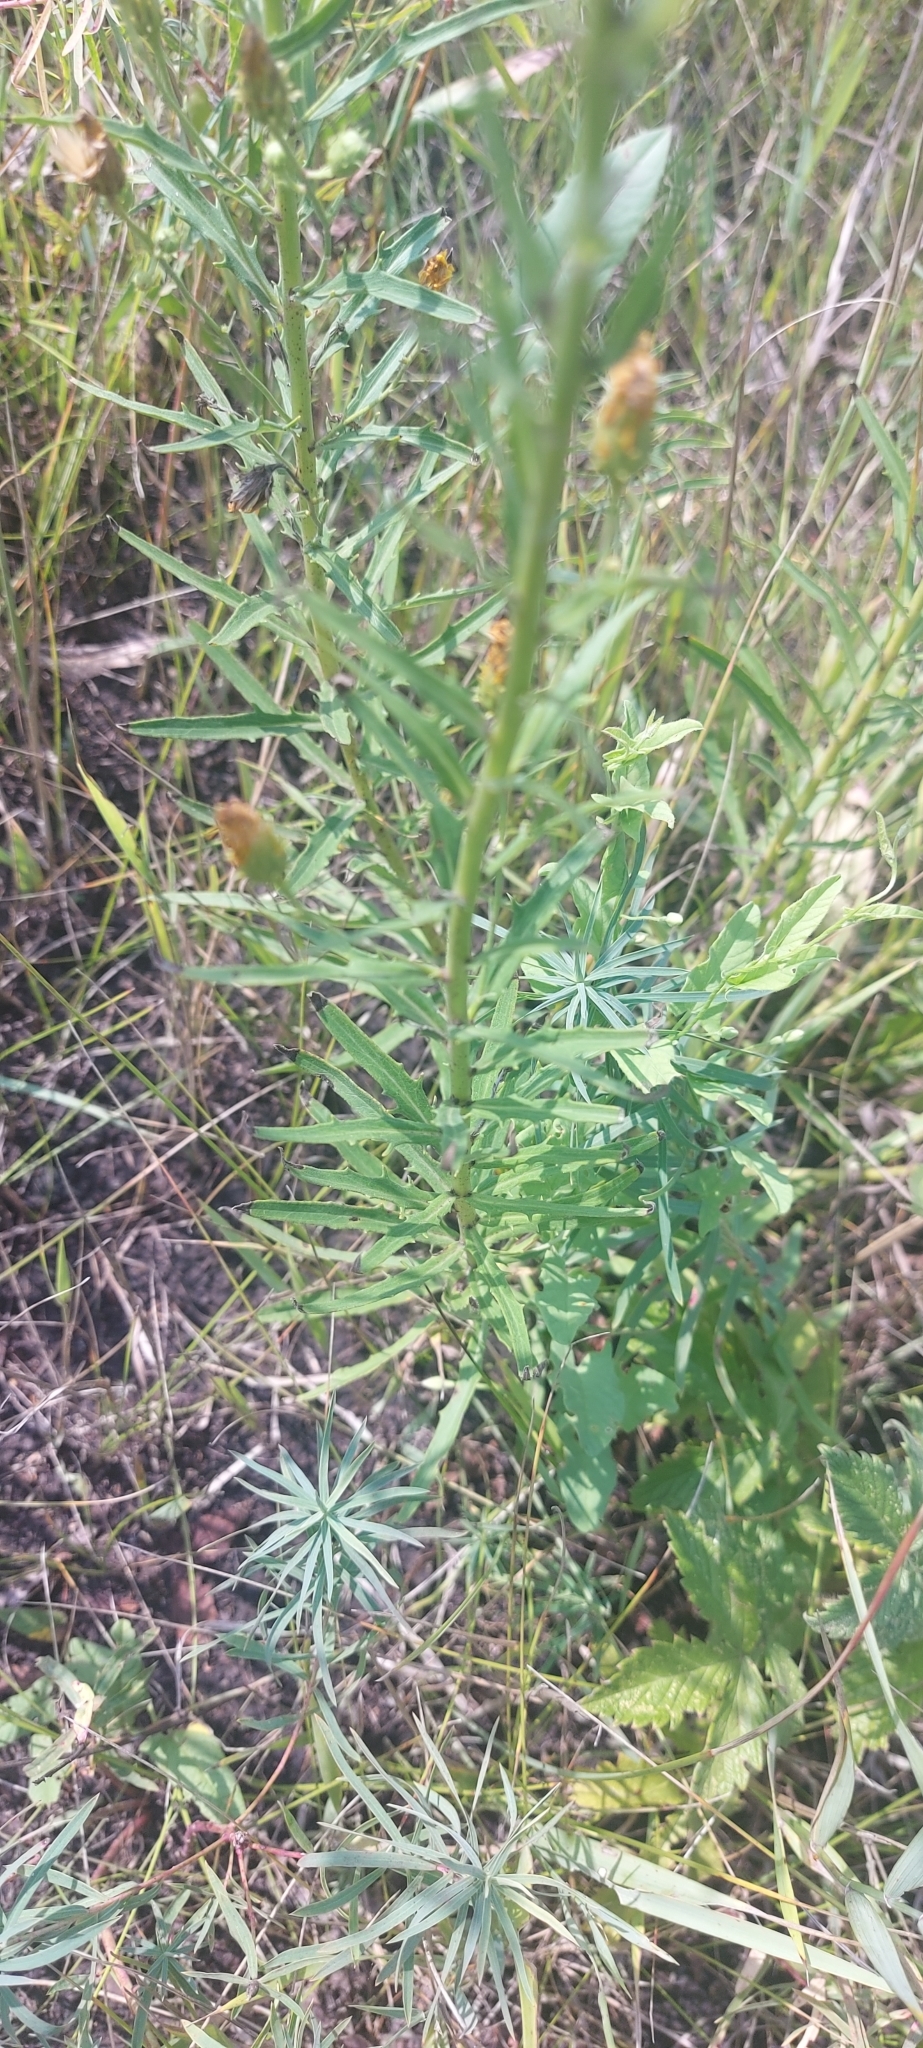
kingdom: Plantae
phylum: Tracheophyta
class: Magnoliopsida
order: Asterales
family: Asteraceae
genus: Hieracium
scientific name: Hieracium umbellatum
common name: Northern hawkweed
